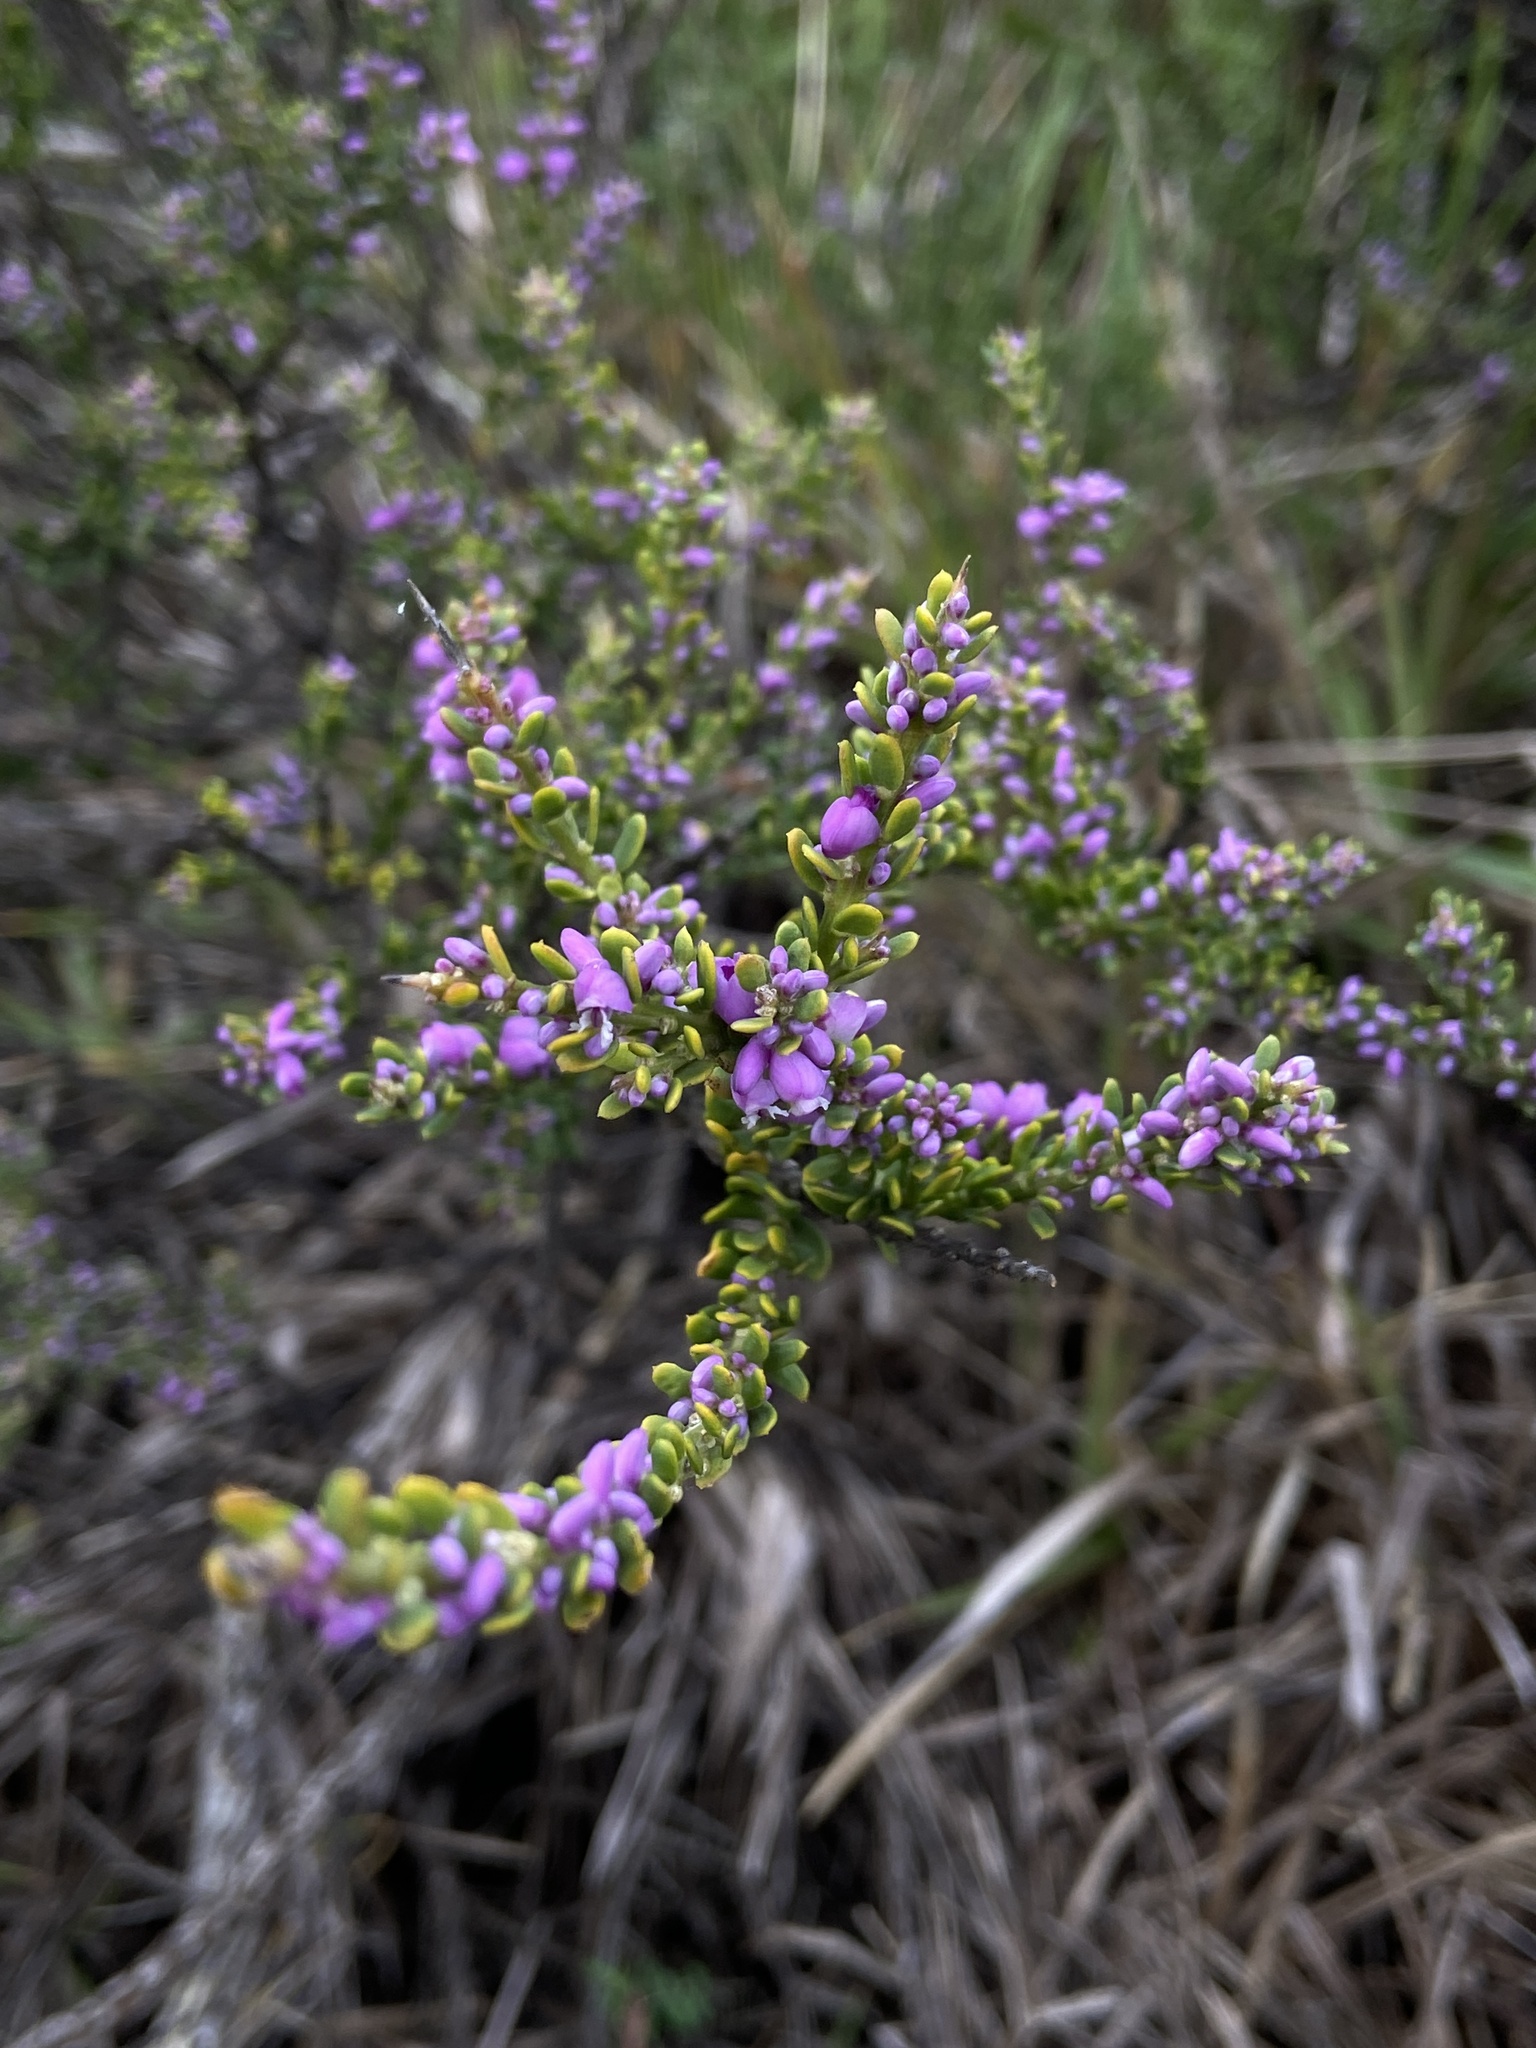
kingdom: Plantae
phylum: Tracheophyta
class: Magnoliopsida
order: Fabales
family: Polygalaceae
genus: Muraltia
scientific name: Muraltia spinosa
